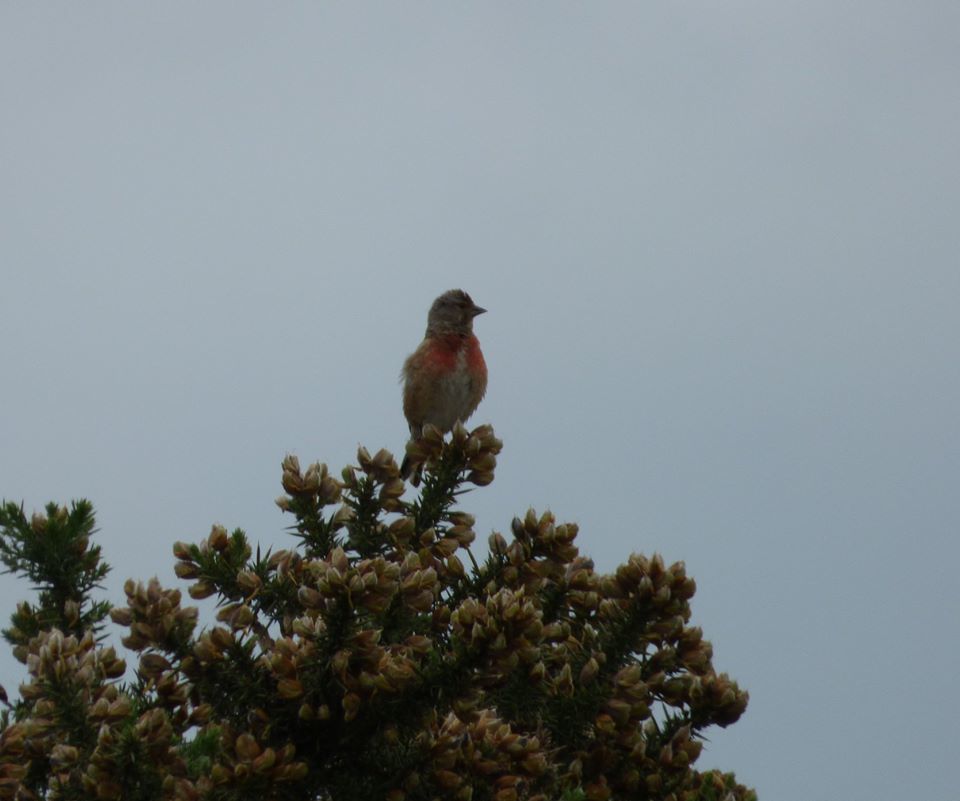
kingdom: Animalia
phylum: Chordata
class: Aves
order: Passeriformes
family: Fringillidae
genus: Linaria
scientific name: Linaria cannabina
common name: Common linnet
